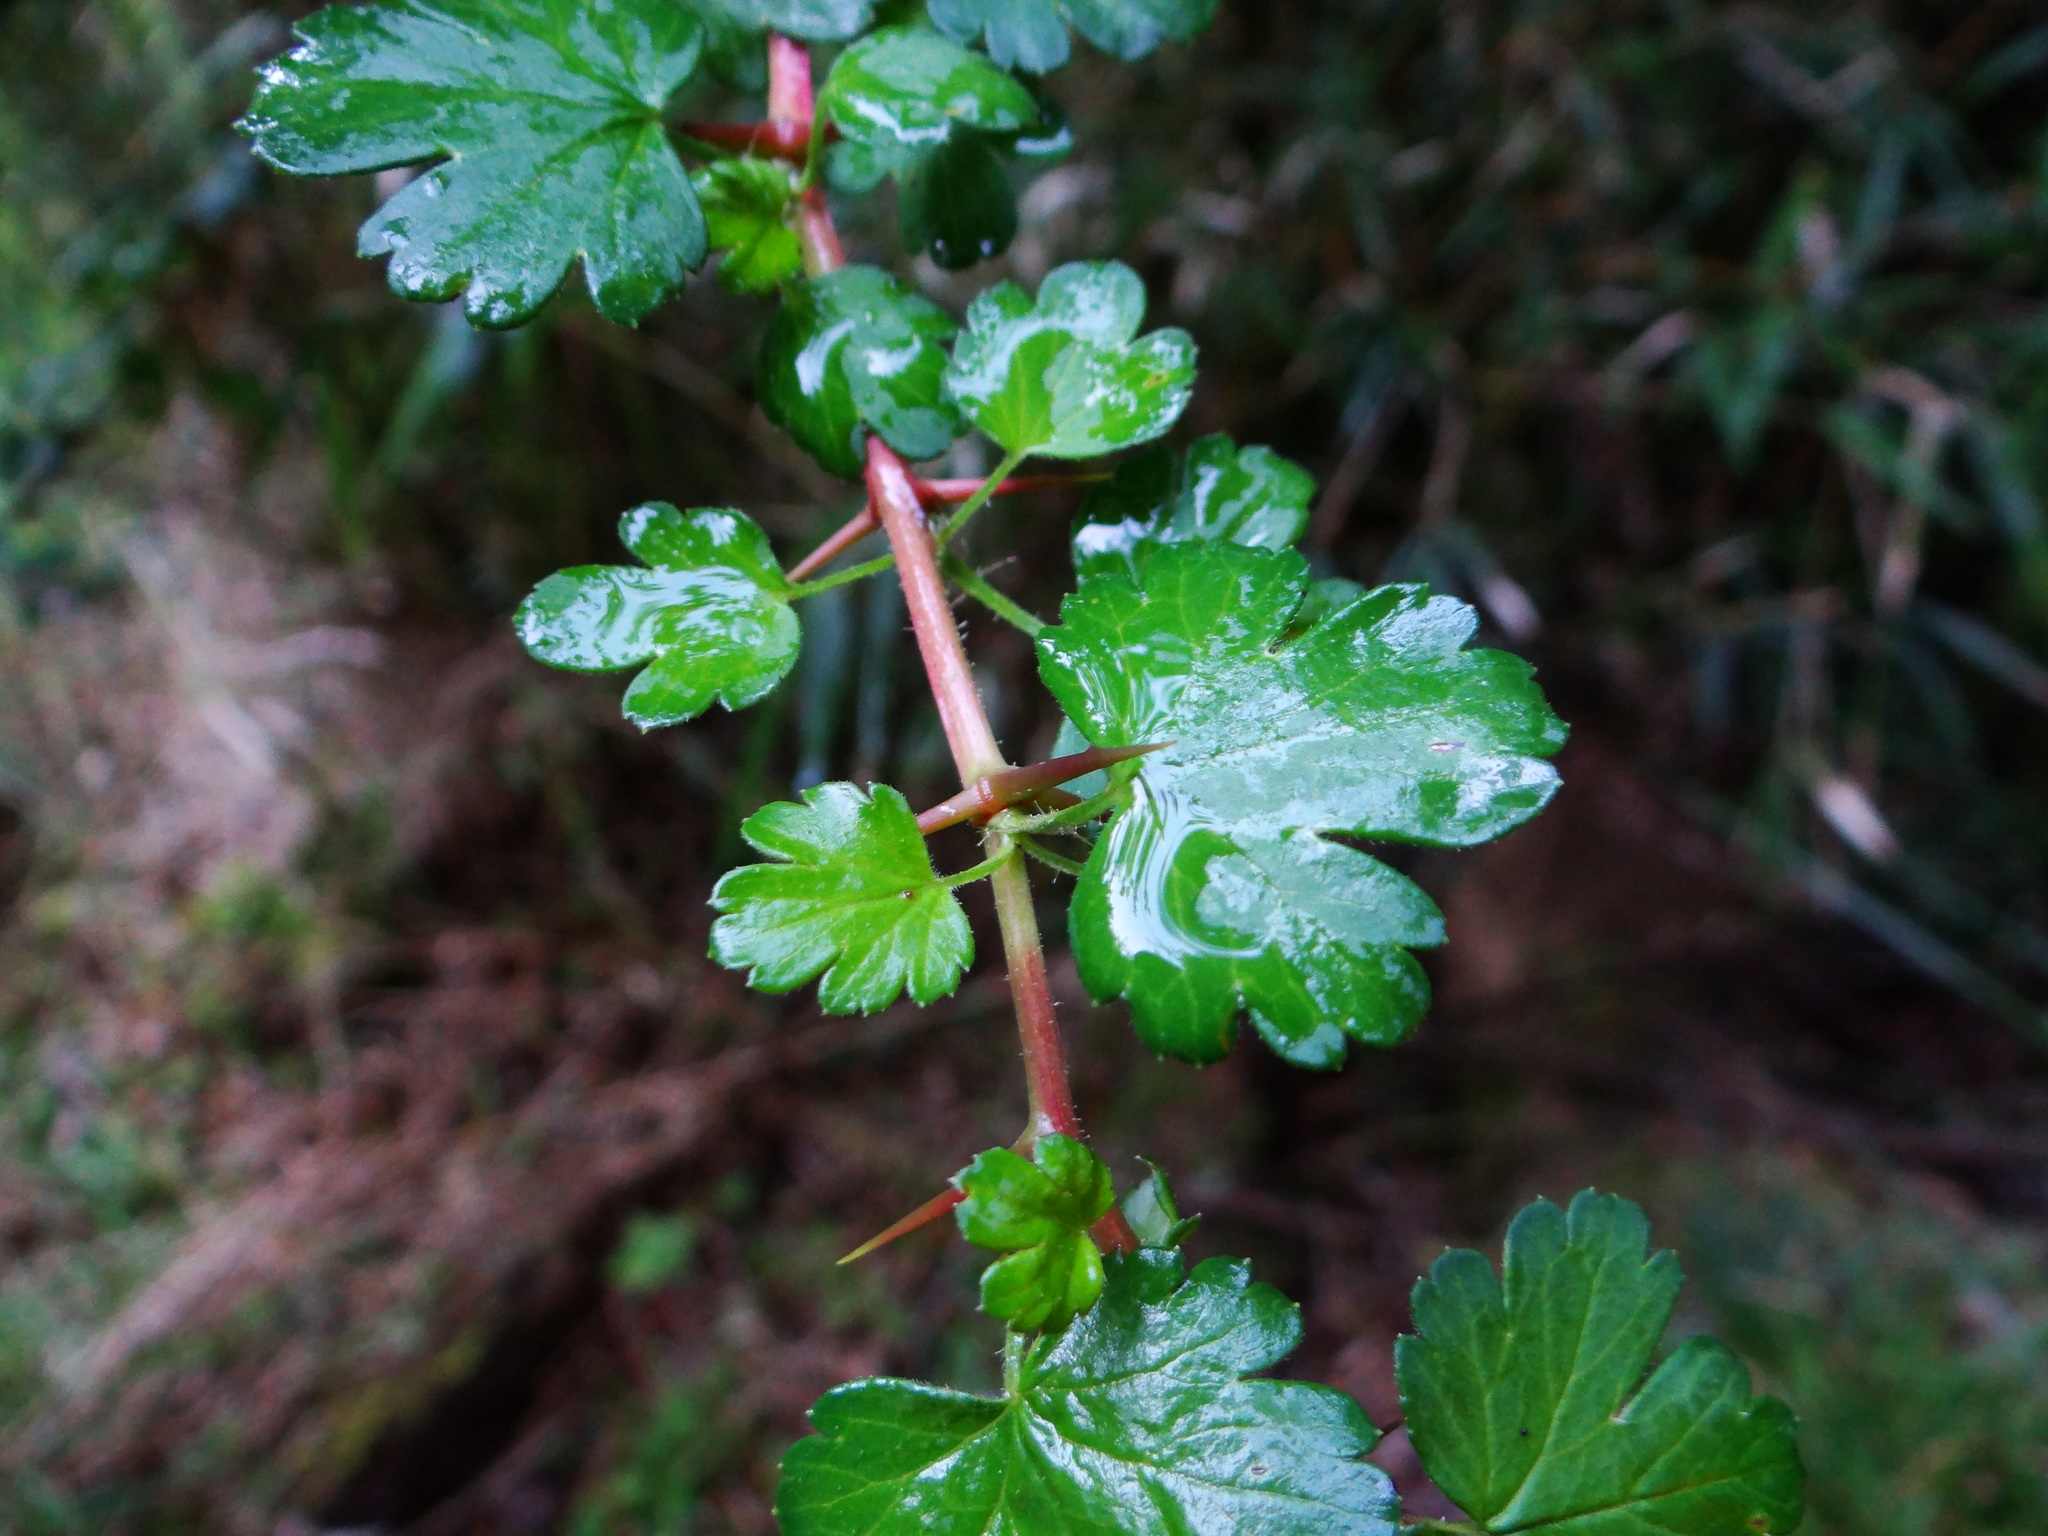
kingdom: Plantae
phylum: Tracheophyta
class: Magnoliopsida
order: Saxifragales
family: Grossulariaceae
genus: Ribes
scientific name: Ribes formosanum
